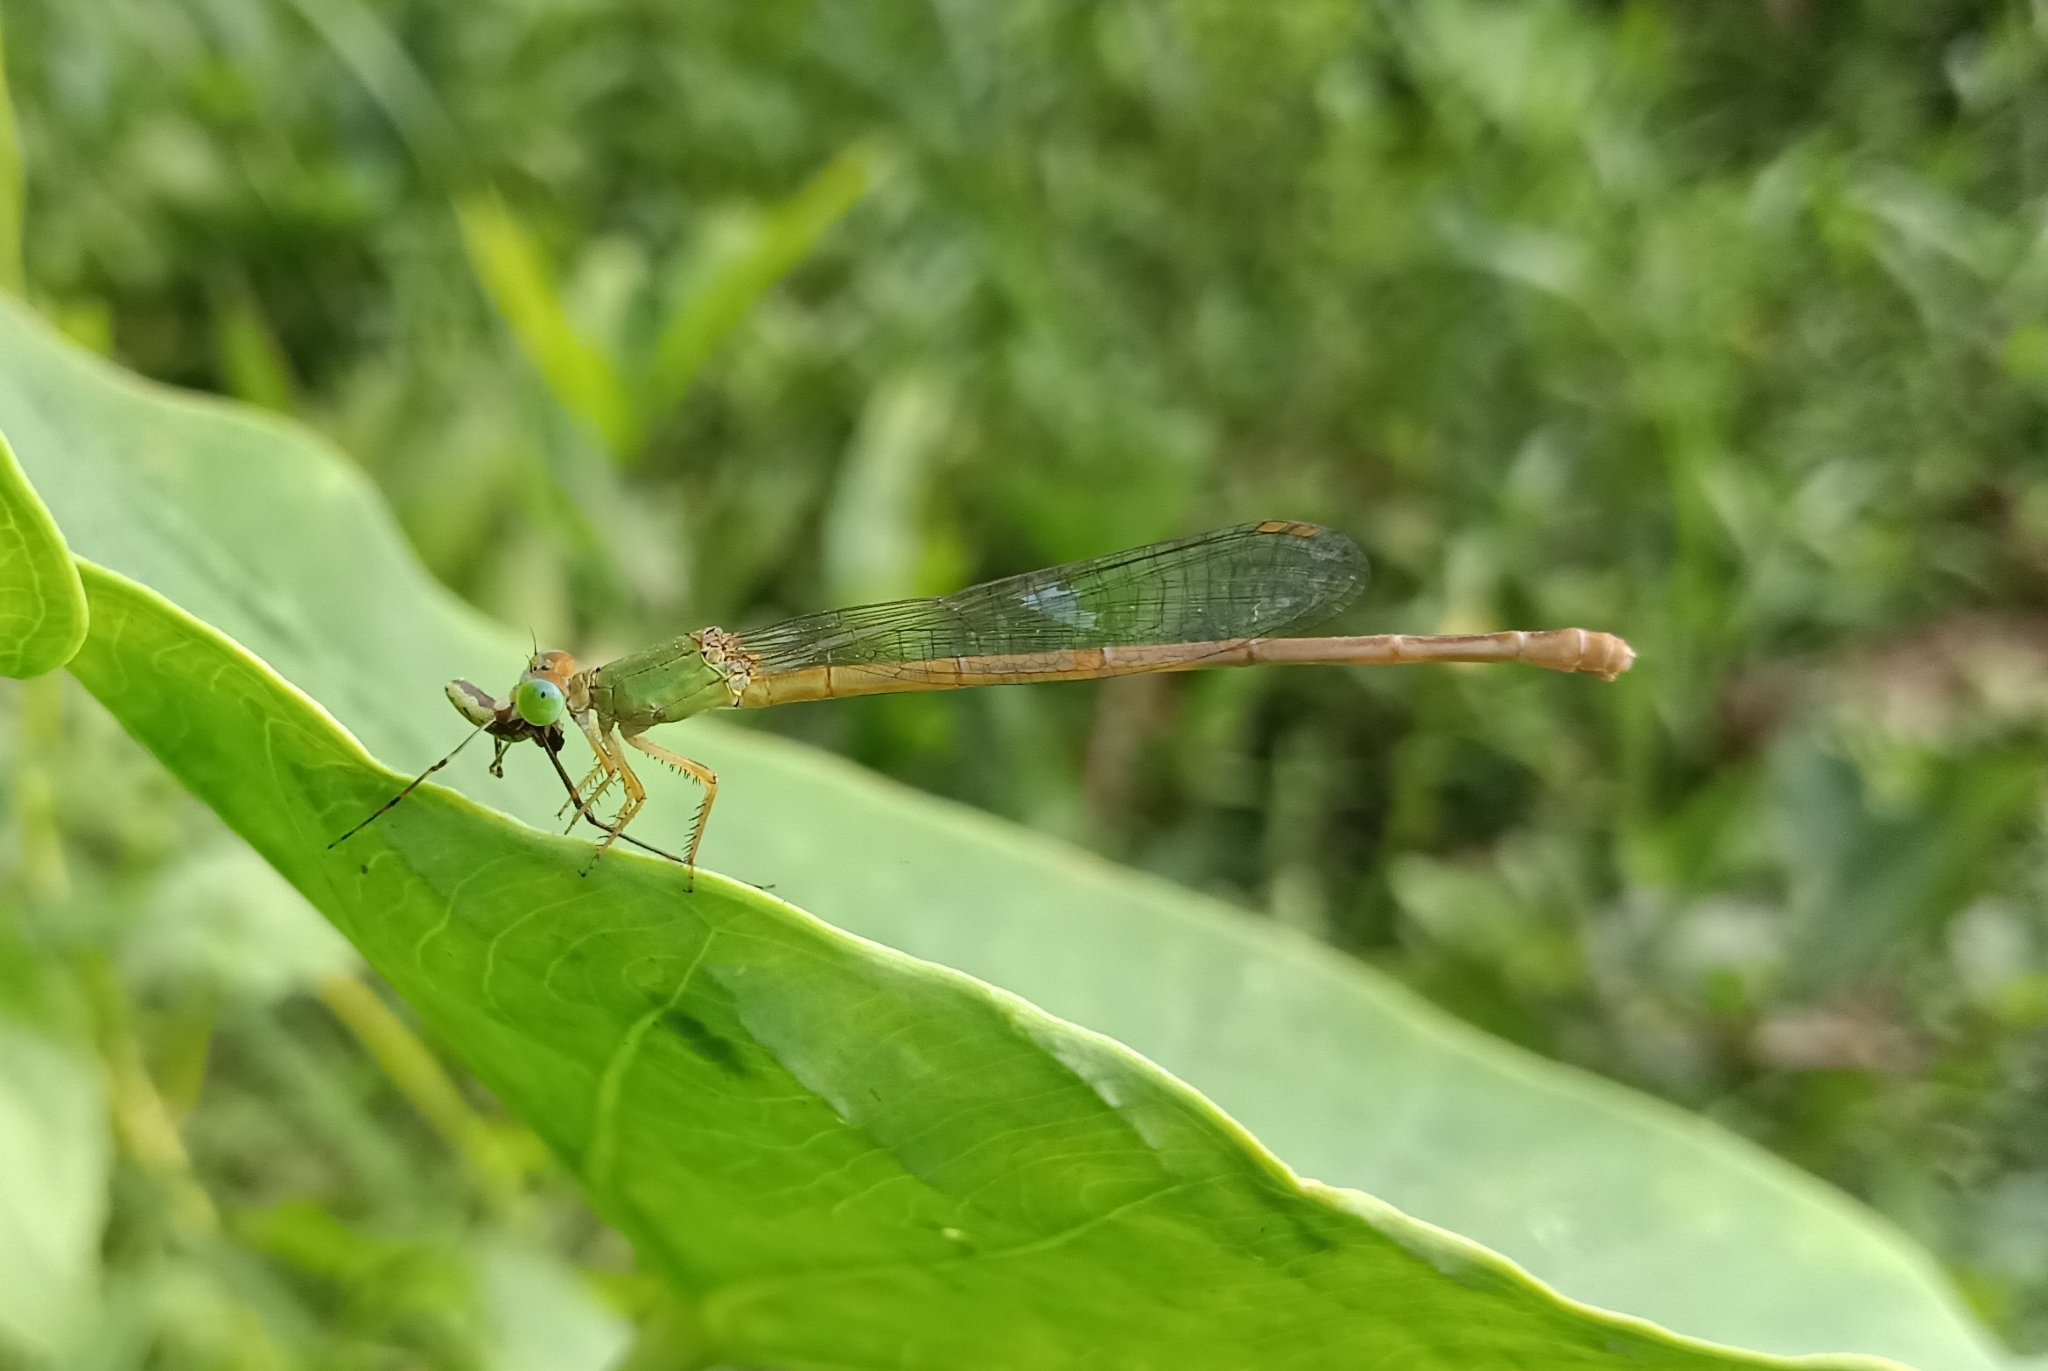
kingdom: Animalia
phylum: Arthropoda
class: Insecta
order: Odonata
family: Coenagrionidae
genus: Ceriagrion
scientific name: Ceriagrion coromandelianum
